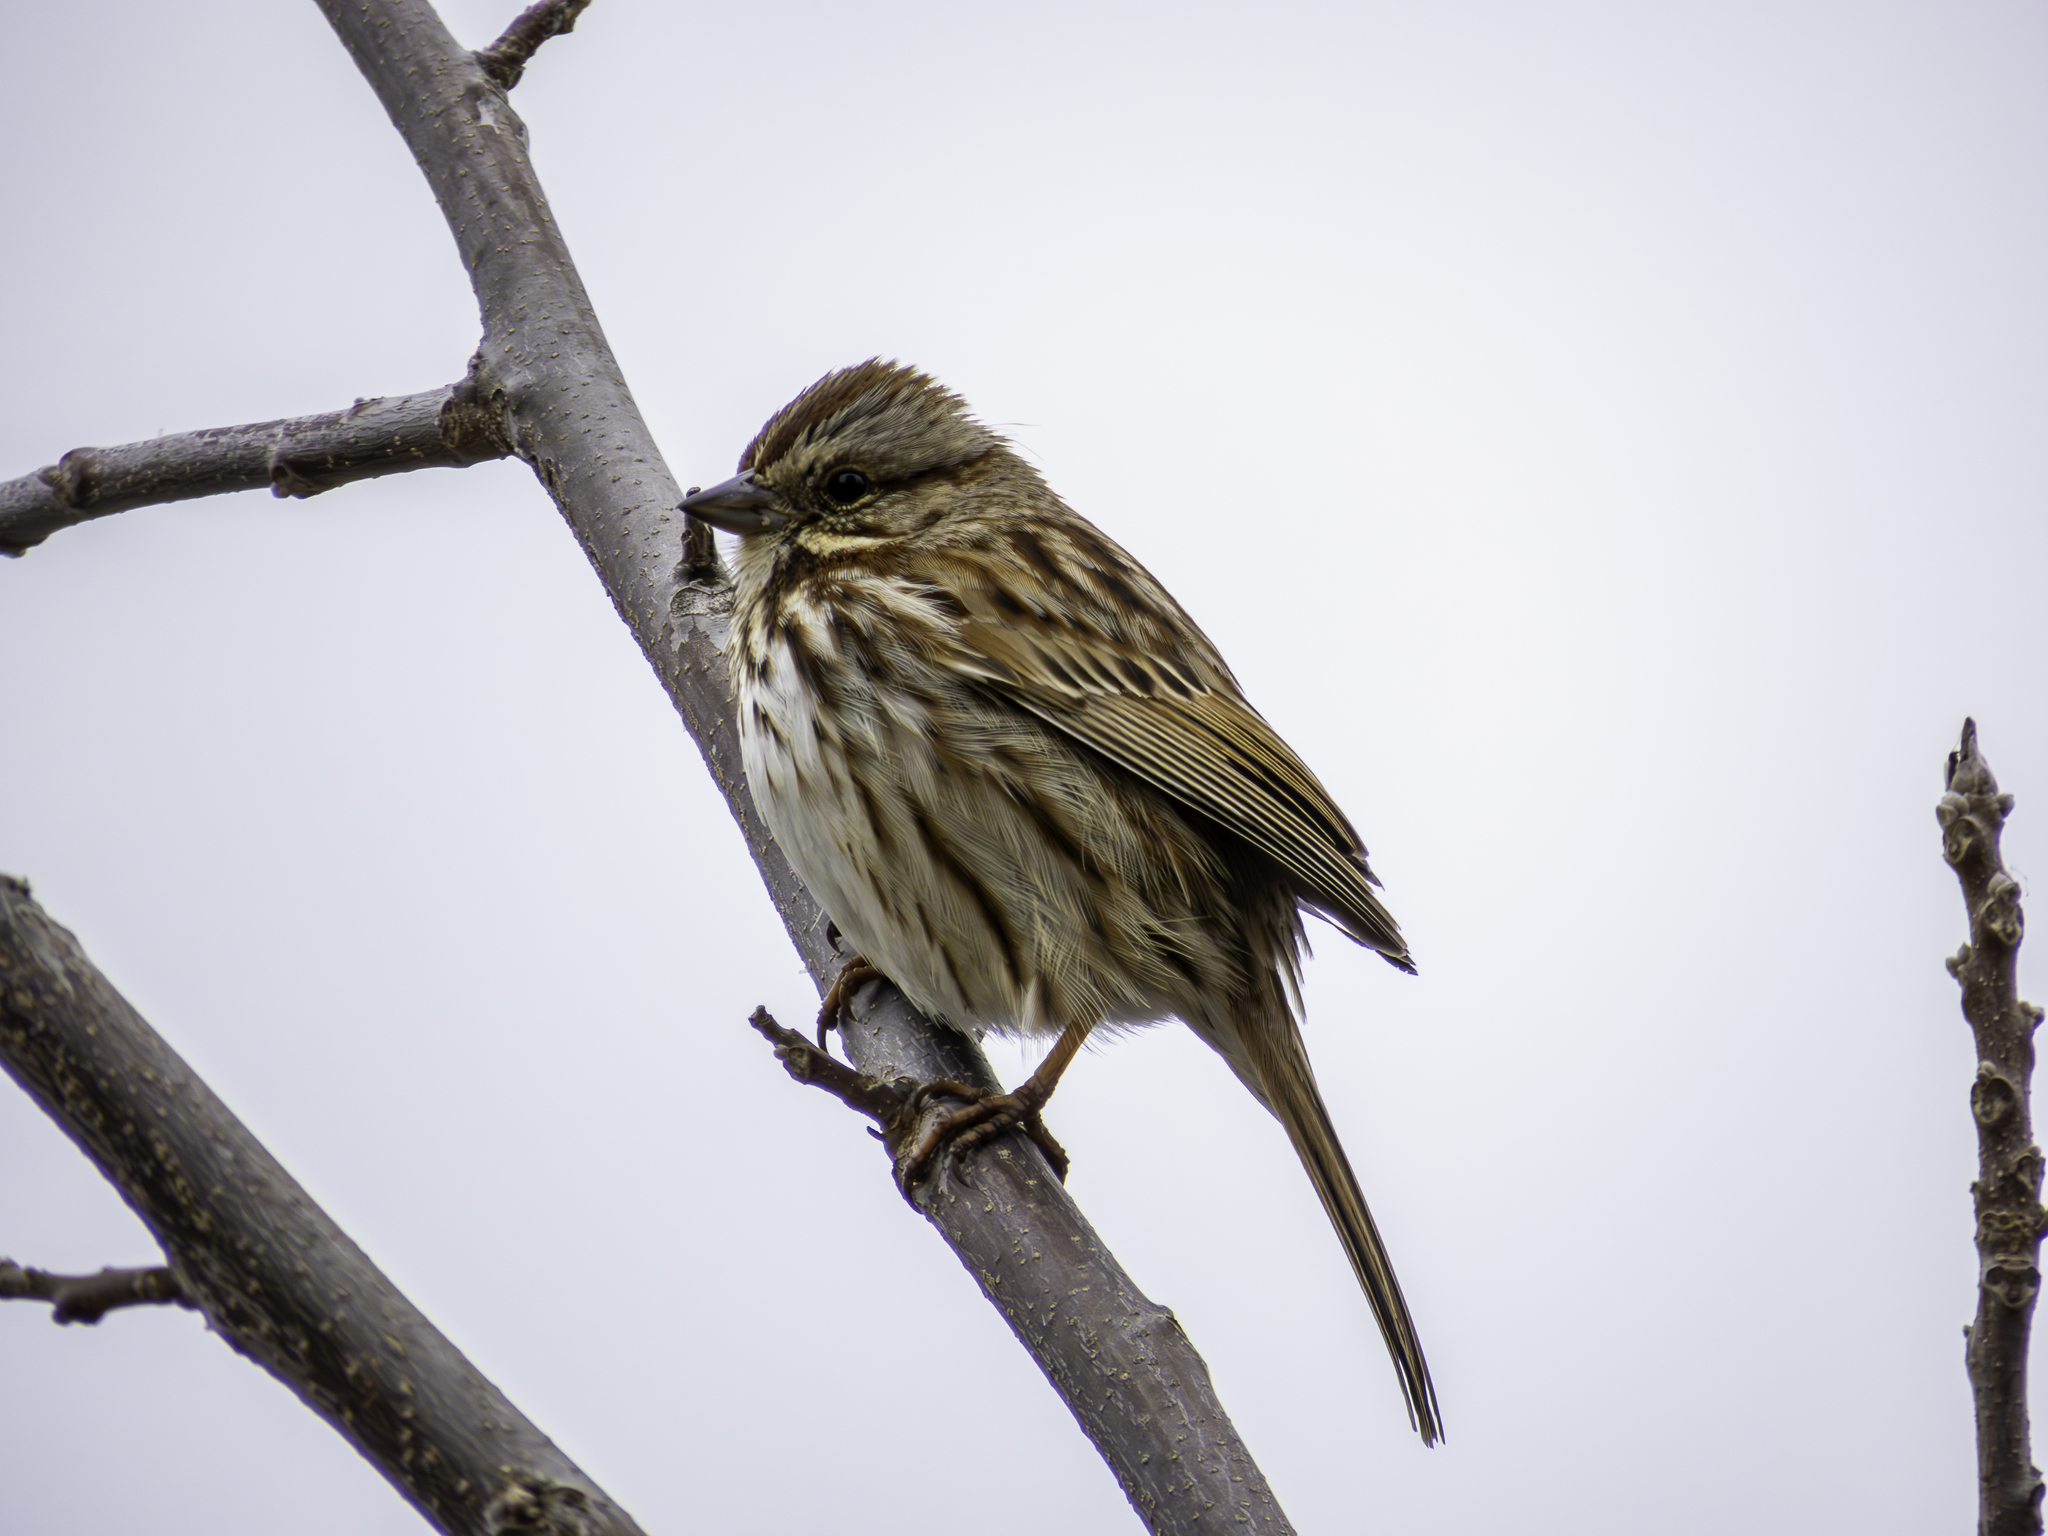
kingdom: Animalia
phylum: Chordata
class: Aves
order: Passeriformes
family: Passerellidae
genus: Melospiza
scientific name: Melospiza melodia
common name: Song sparrow
